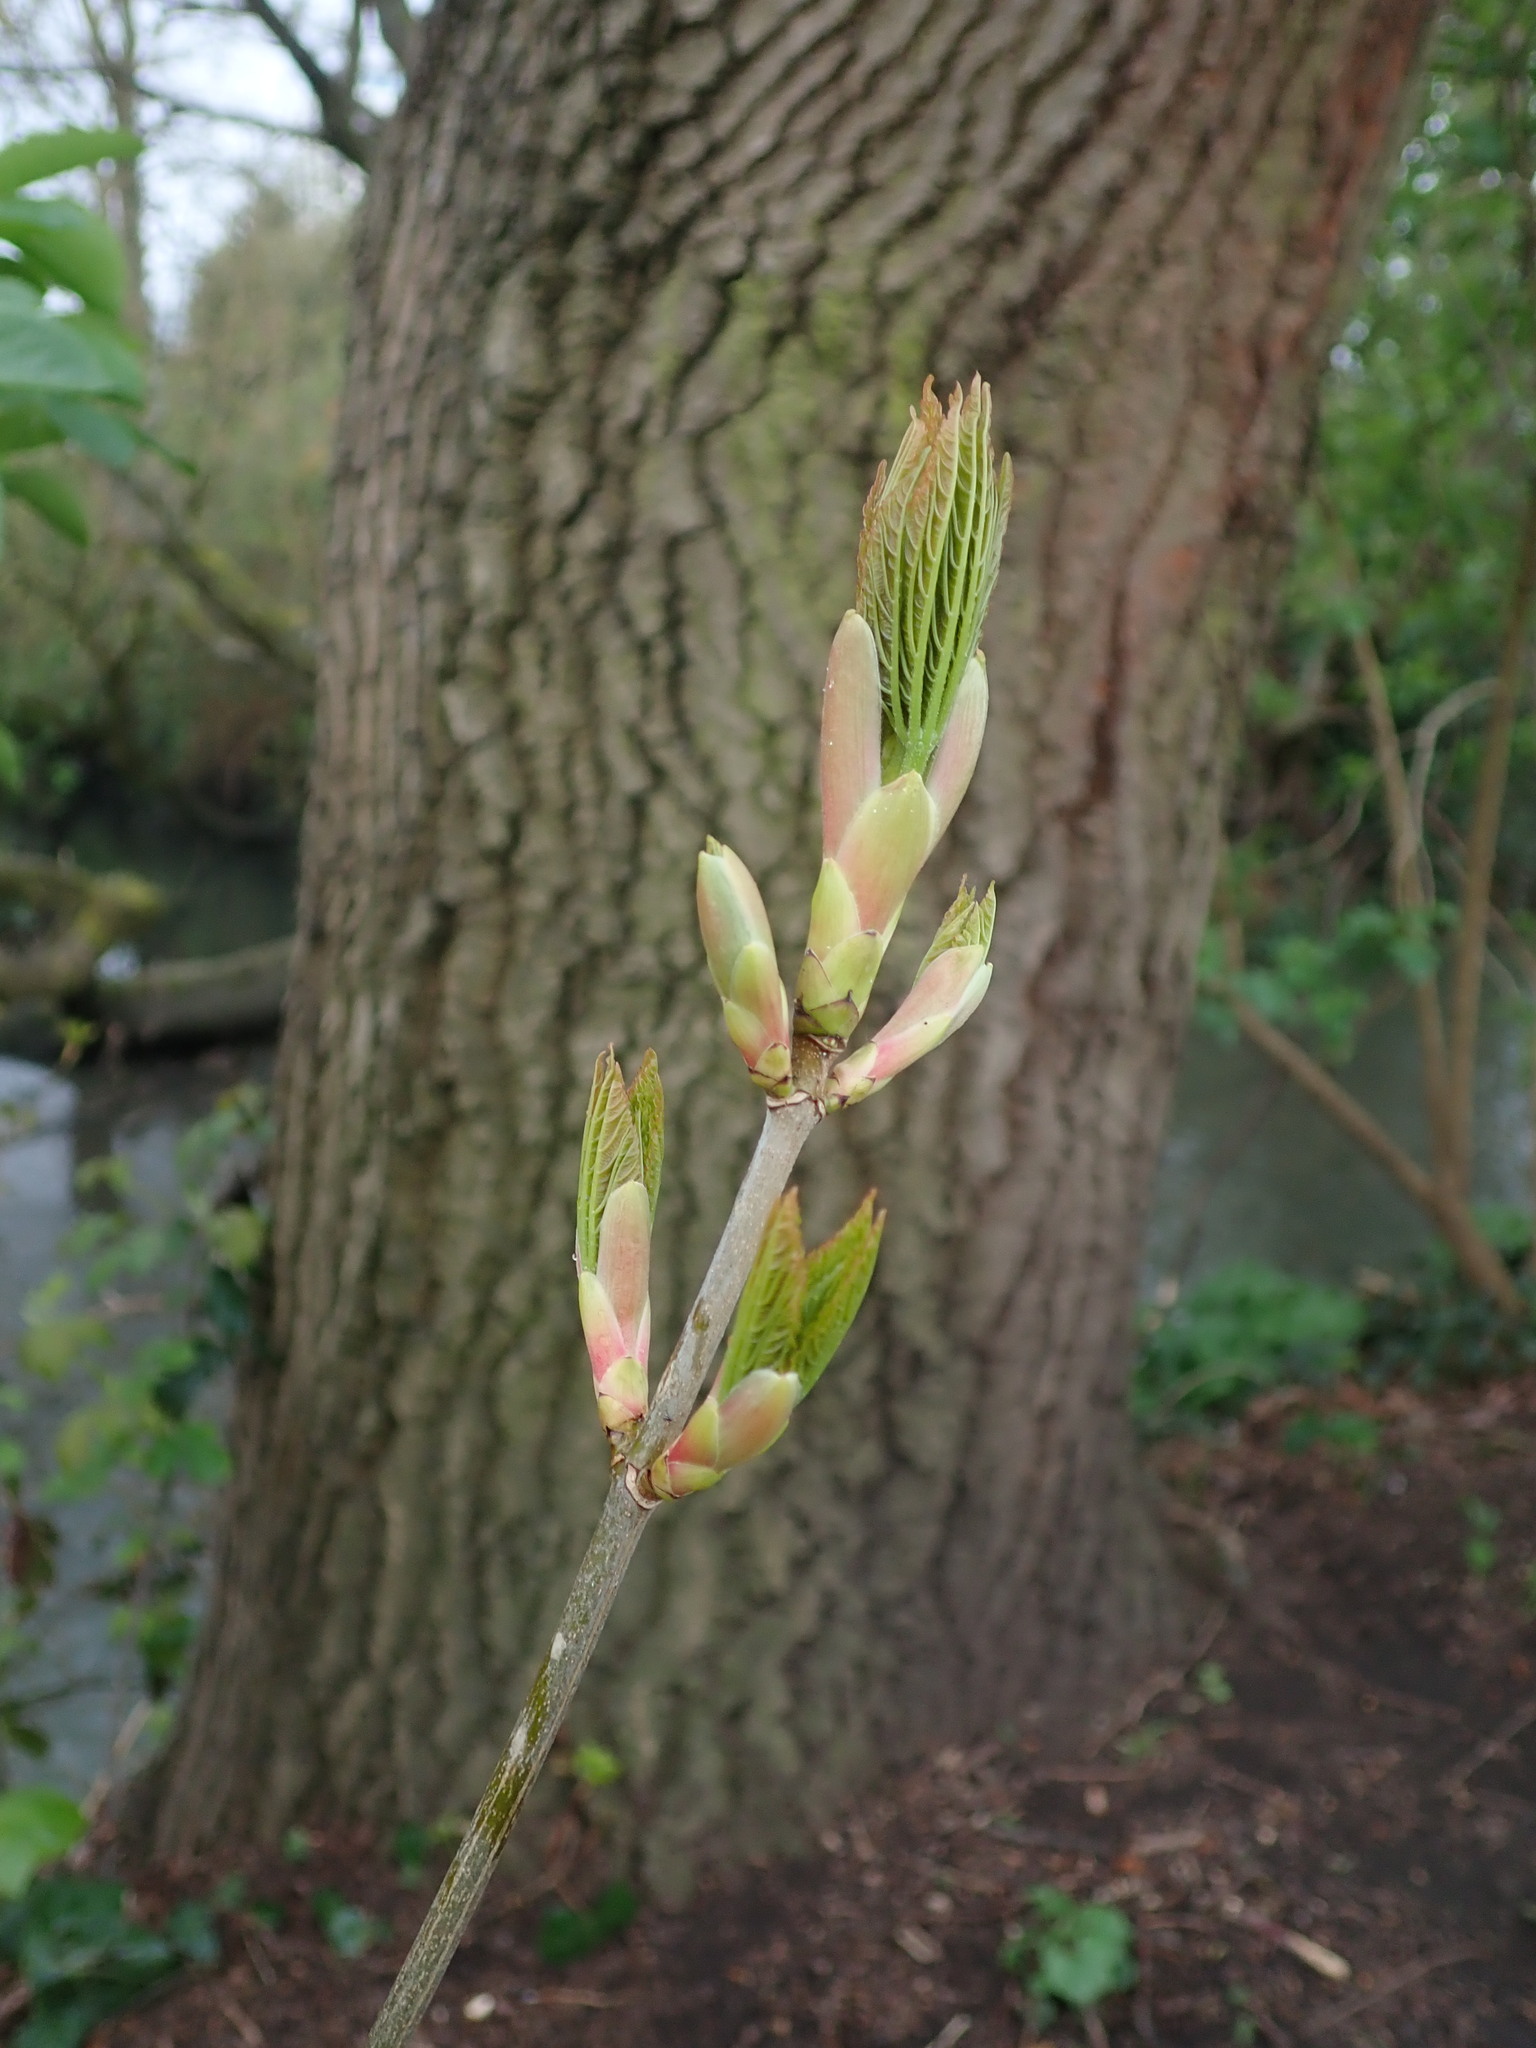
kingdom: Plantae
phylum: Tracheophyta
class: Magnoliopsida
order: Sapindales
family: Sapindaceae
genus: Acer
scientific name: Acer pseudoplatanus
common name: Sycamore
